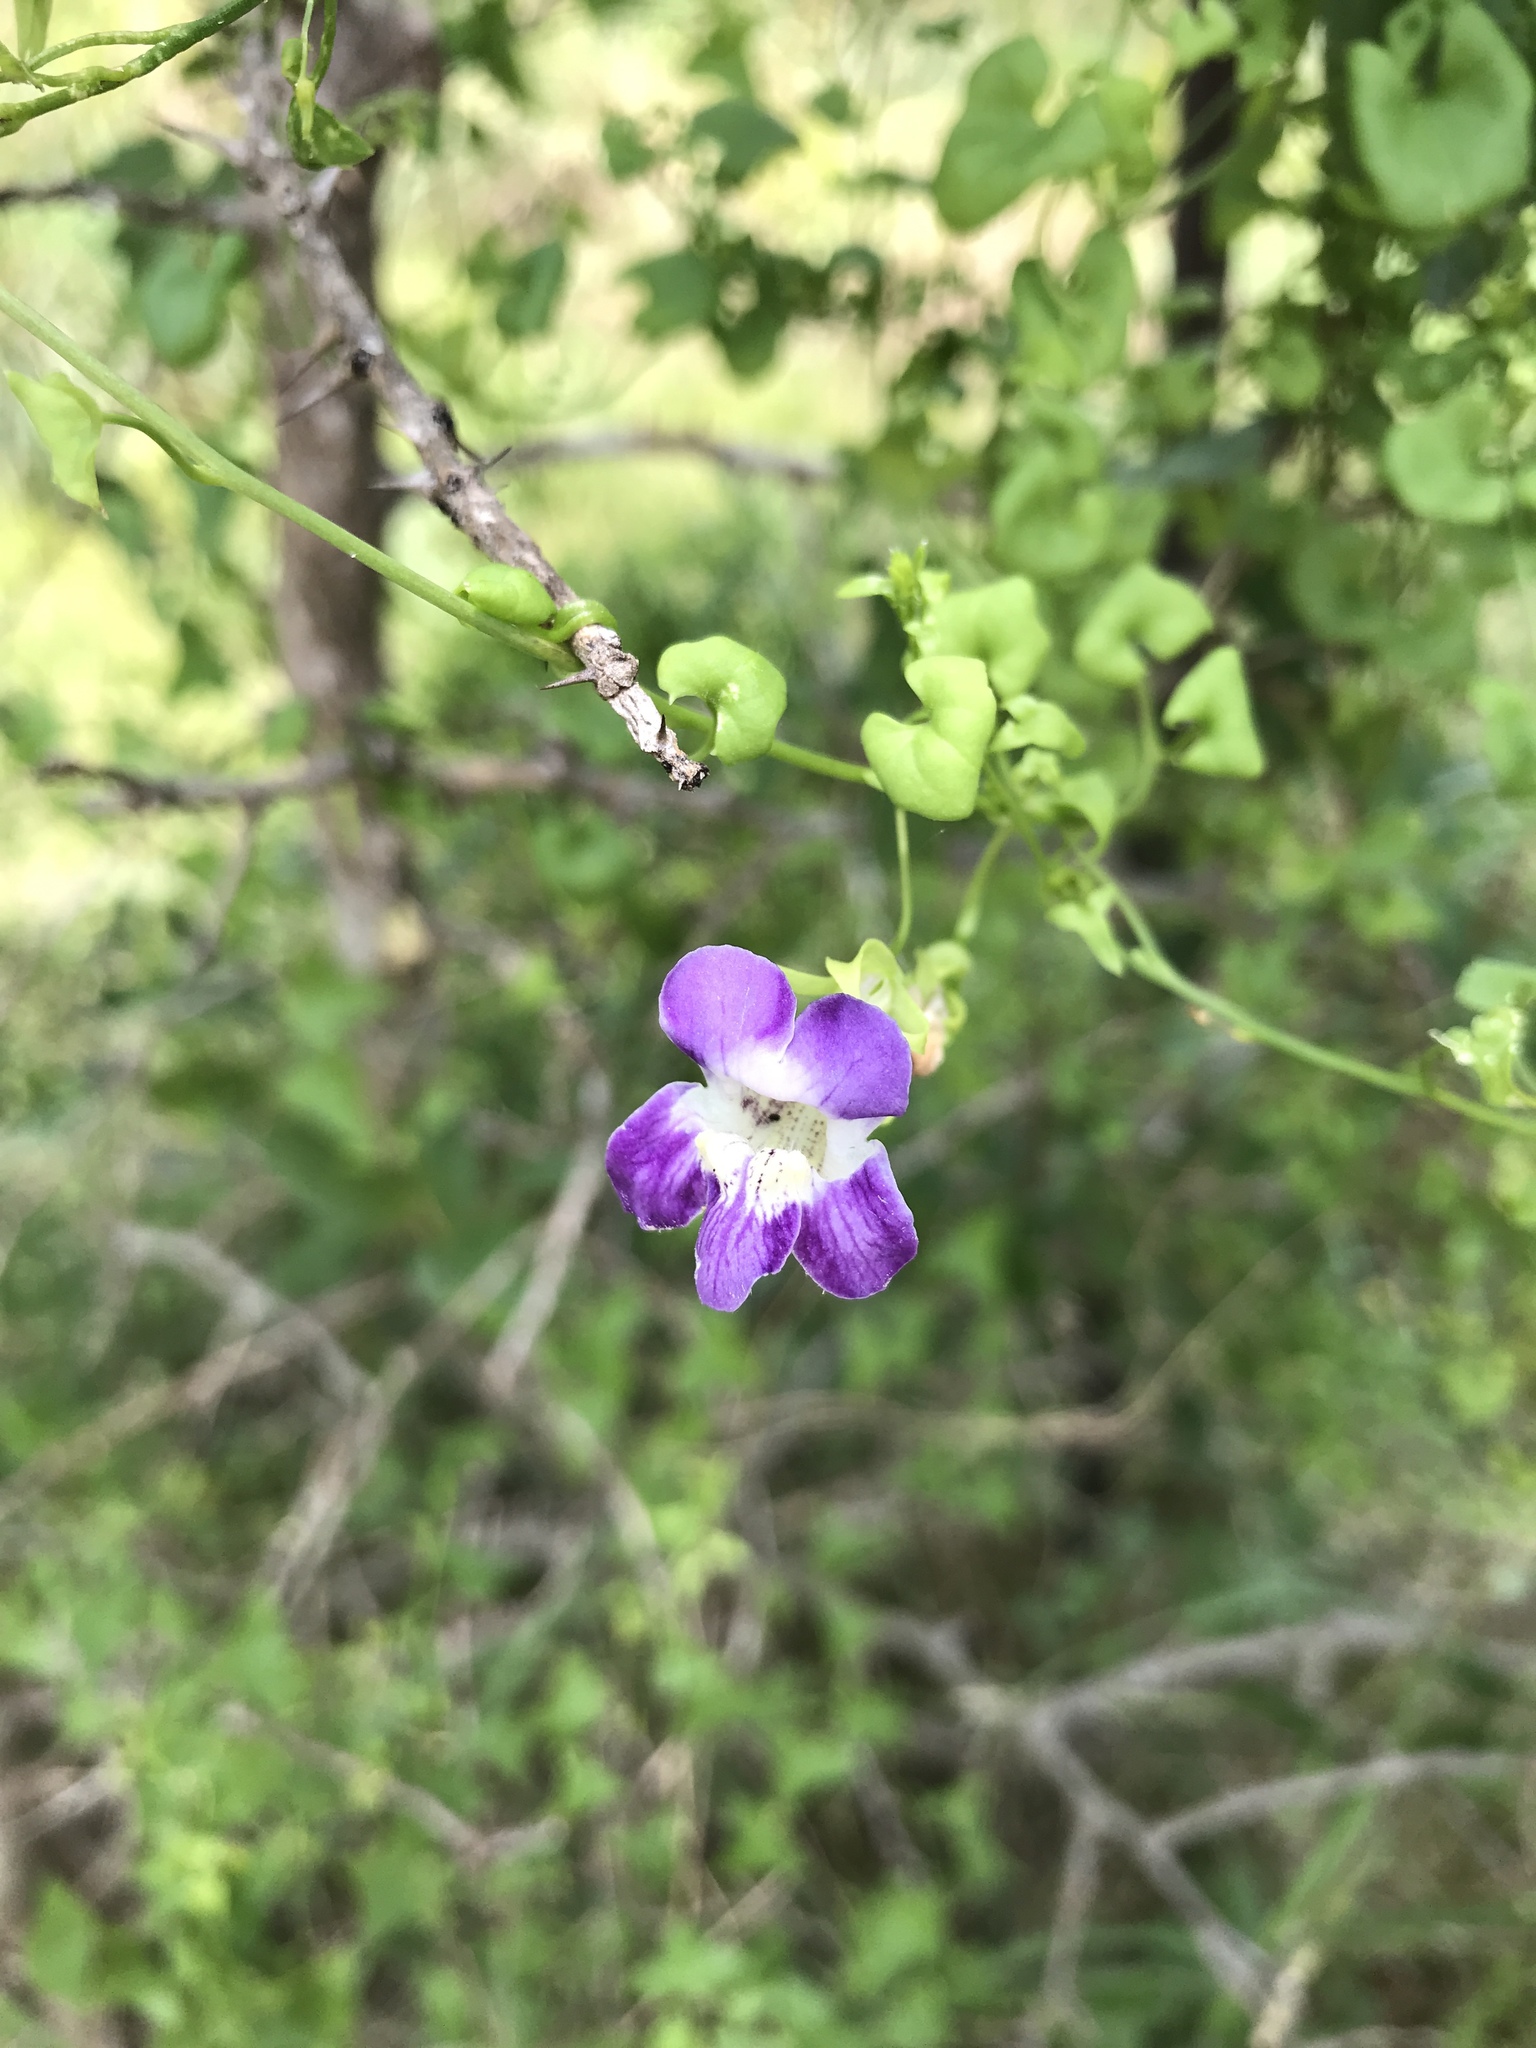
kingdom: Plantae
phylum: Tracheophyta
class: Magnoliopsida
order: Lamiales
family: Plantaginaceae
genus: Maurandella
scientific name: Maurandella antirrhiniflora
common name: Violet twining-snapdragon
